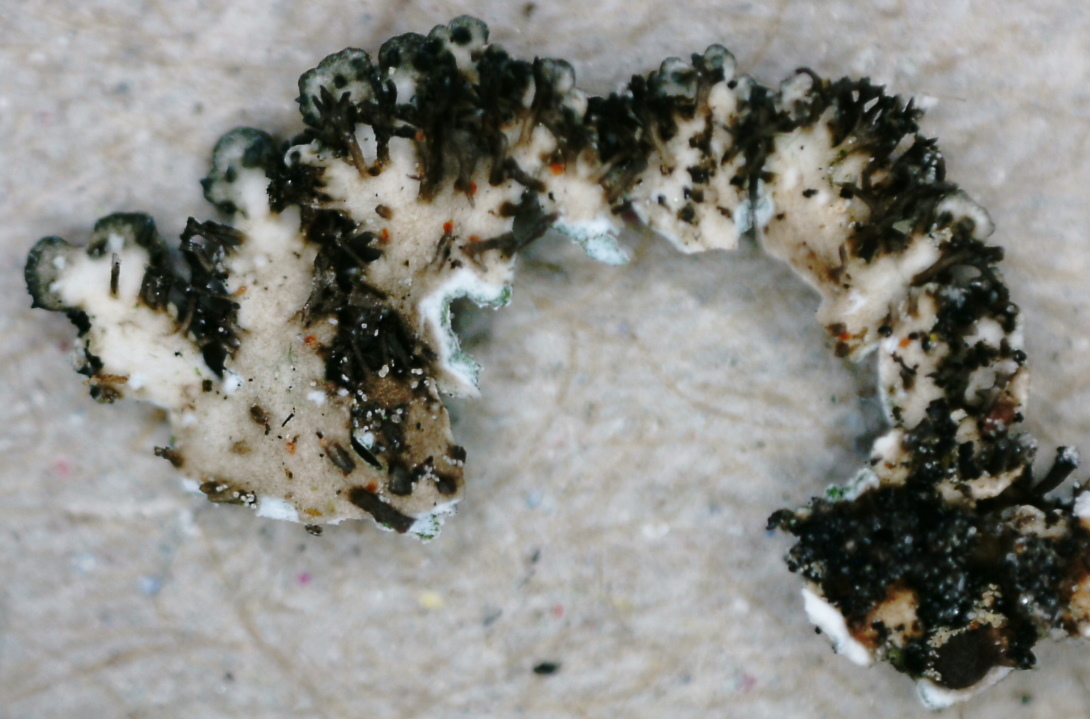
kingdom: Fungi
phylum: Ascomycota
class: Lecanoromycetes
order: Caliciales
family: Physciaceae
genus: Physcia
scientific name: Physcia caesia
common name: Blue-gray rosette lichen
